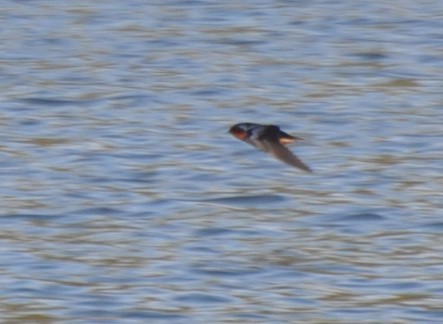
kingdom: Animalia
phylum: Chordata
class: Aves
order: Passeriformes
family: Hirundinidae
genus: Hirundo
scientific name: Hirundo rustica
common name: Barn swallow
